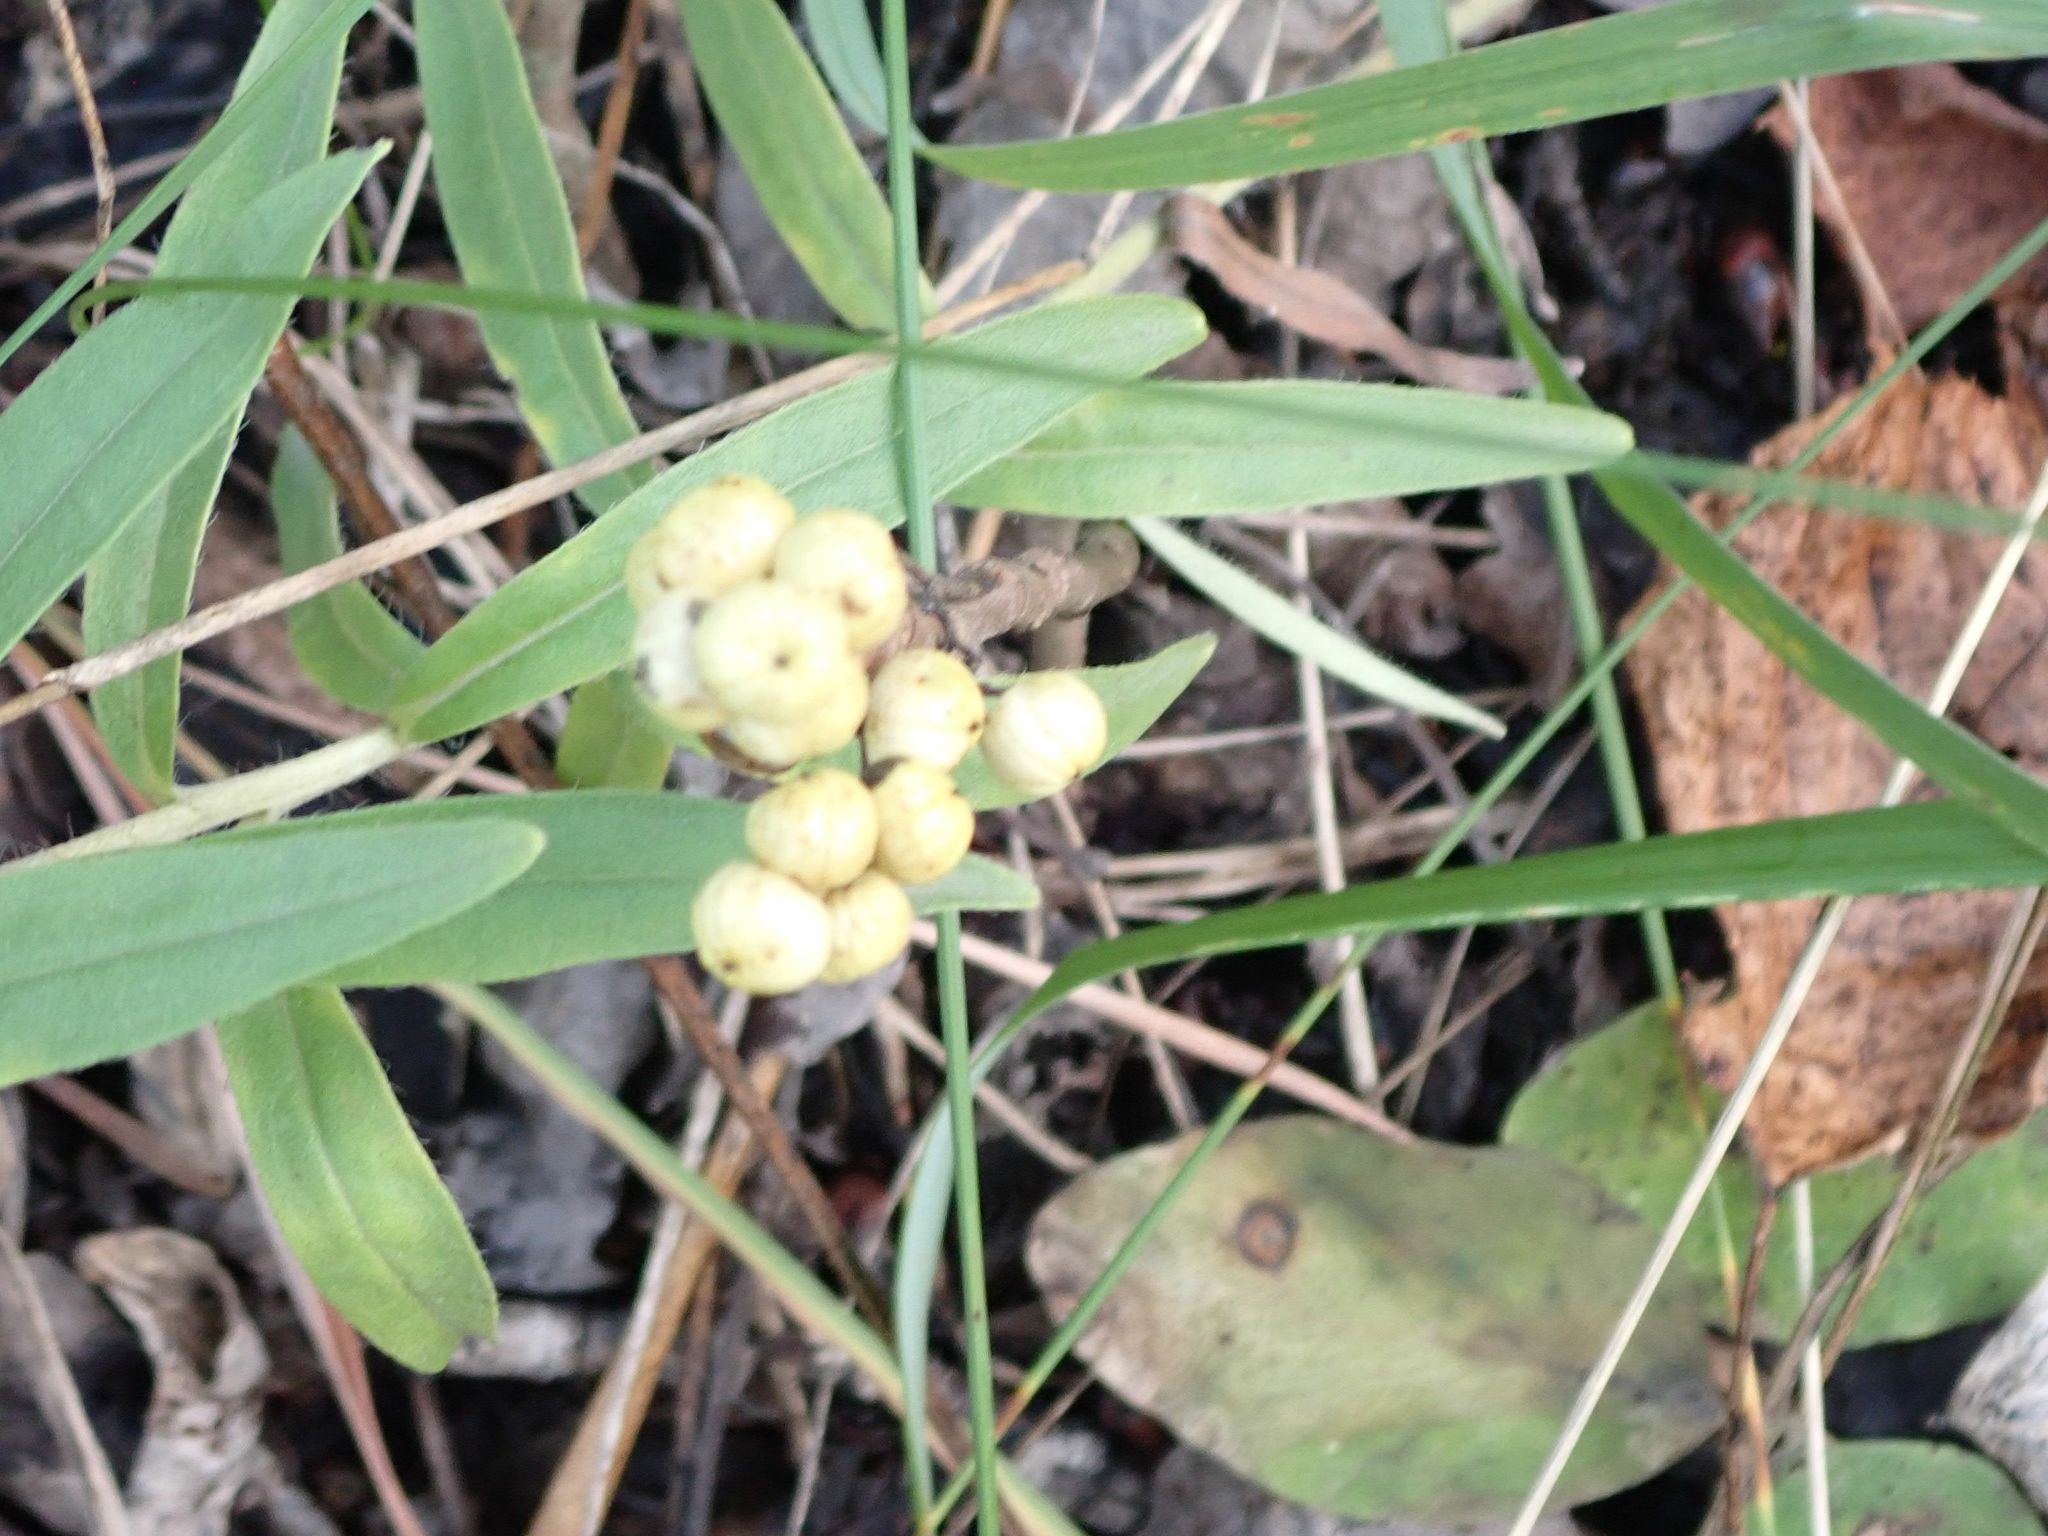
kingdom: Plantae
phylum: Tracheophyta
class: Magnoliopsida
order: Sapindales
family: Anacardiaceae
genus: Toxicodendron
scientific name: Toxicodendron rydbergii
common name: Rydberg's poison-ivy
